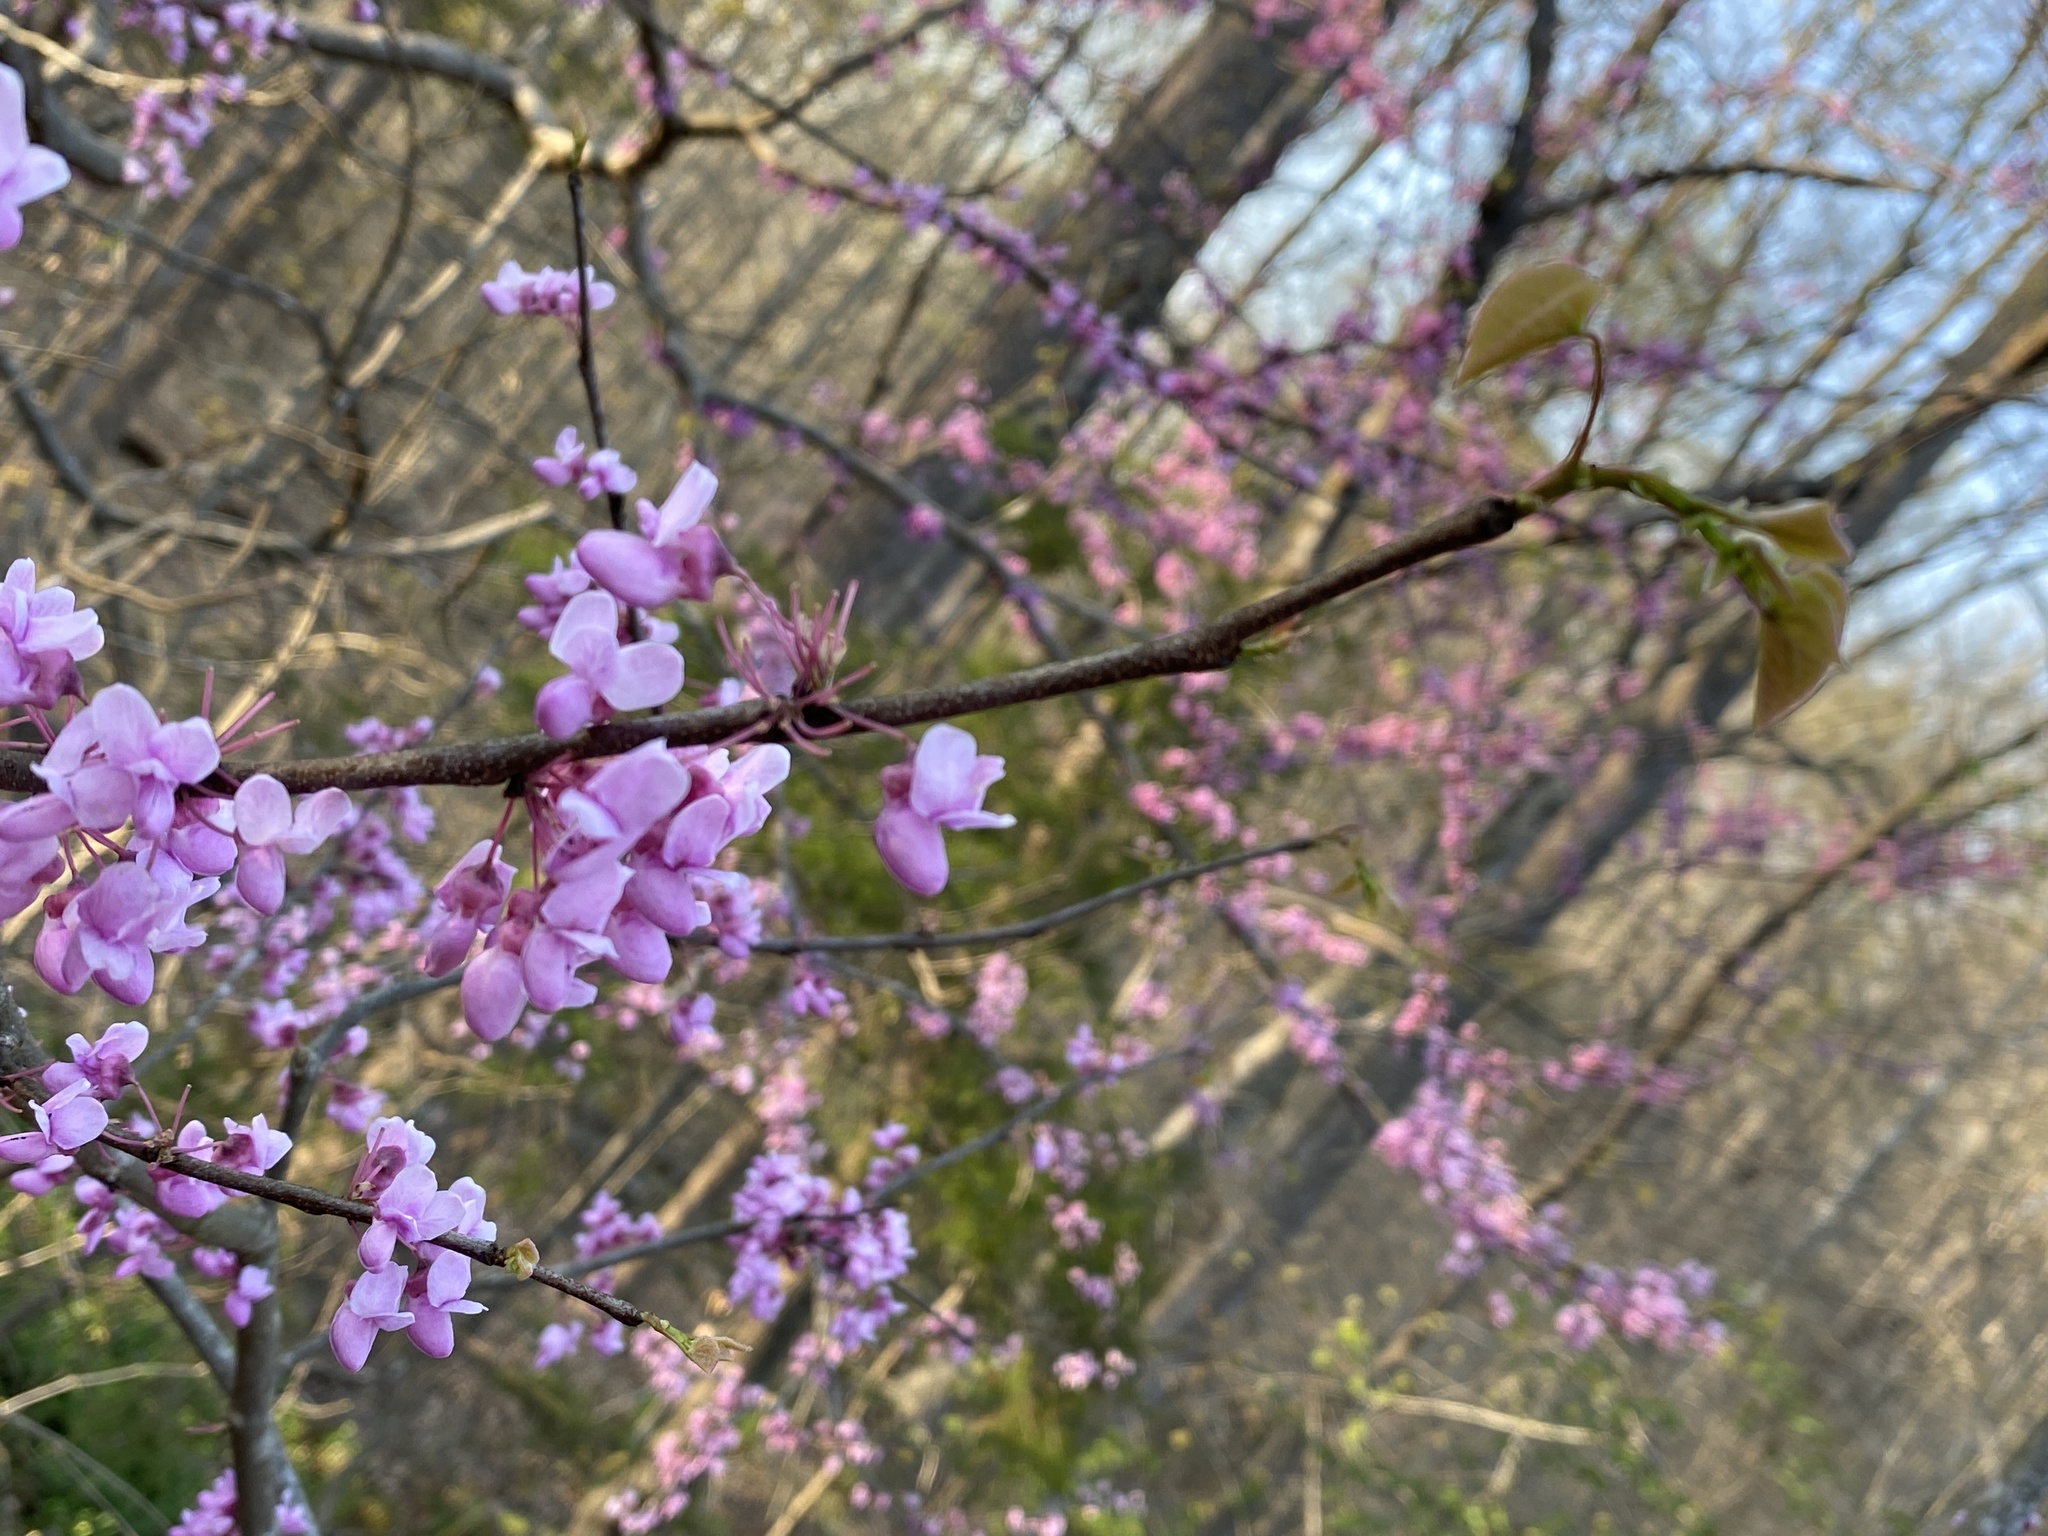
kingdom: Plantae
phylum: Tracheophyta
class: Magnoliopsida
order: Fabales
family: Fabaceae
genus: Cercis
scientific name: Cercis canadensis
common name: Eastern redbud
